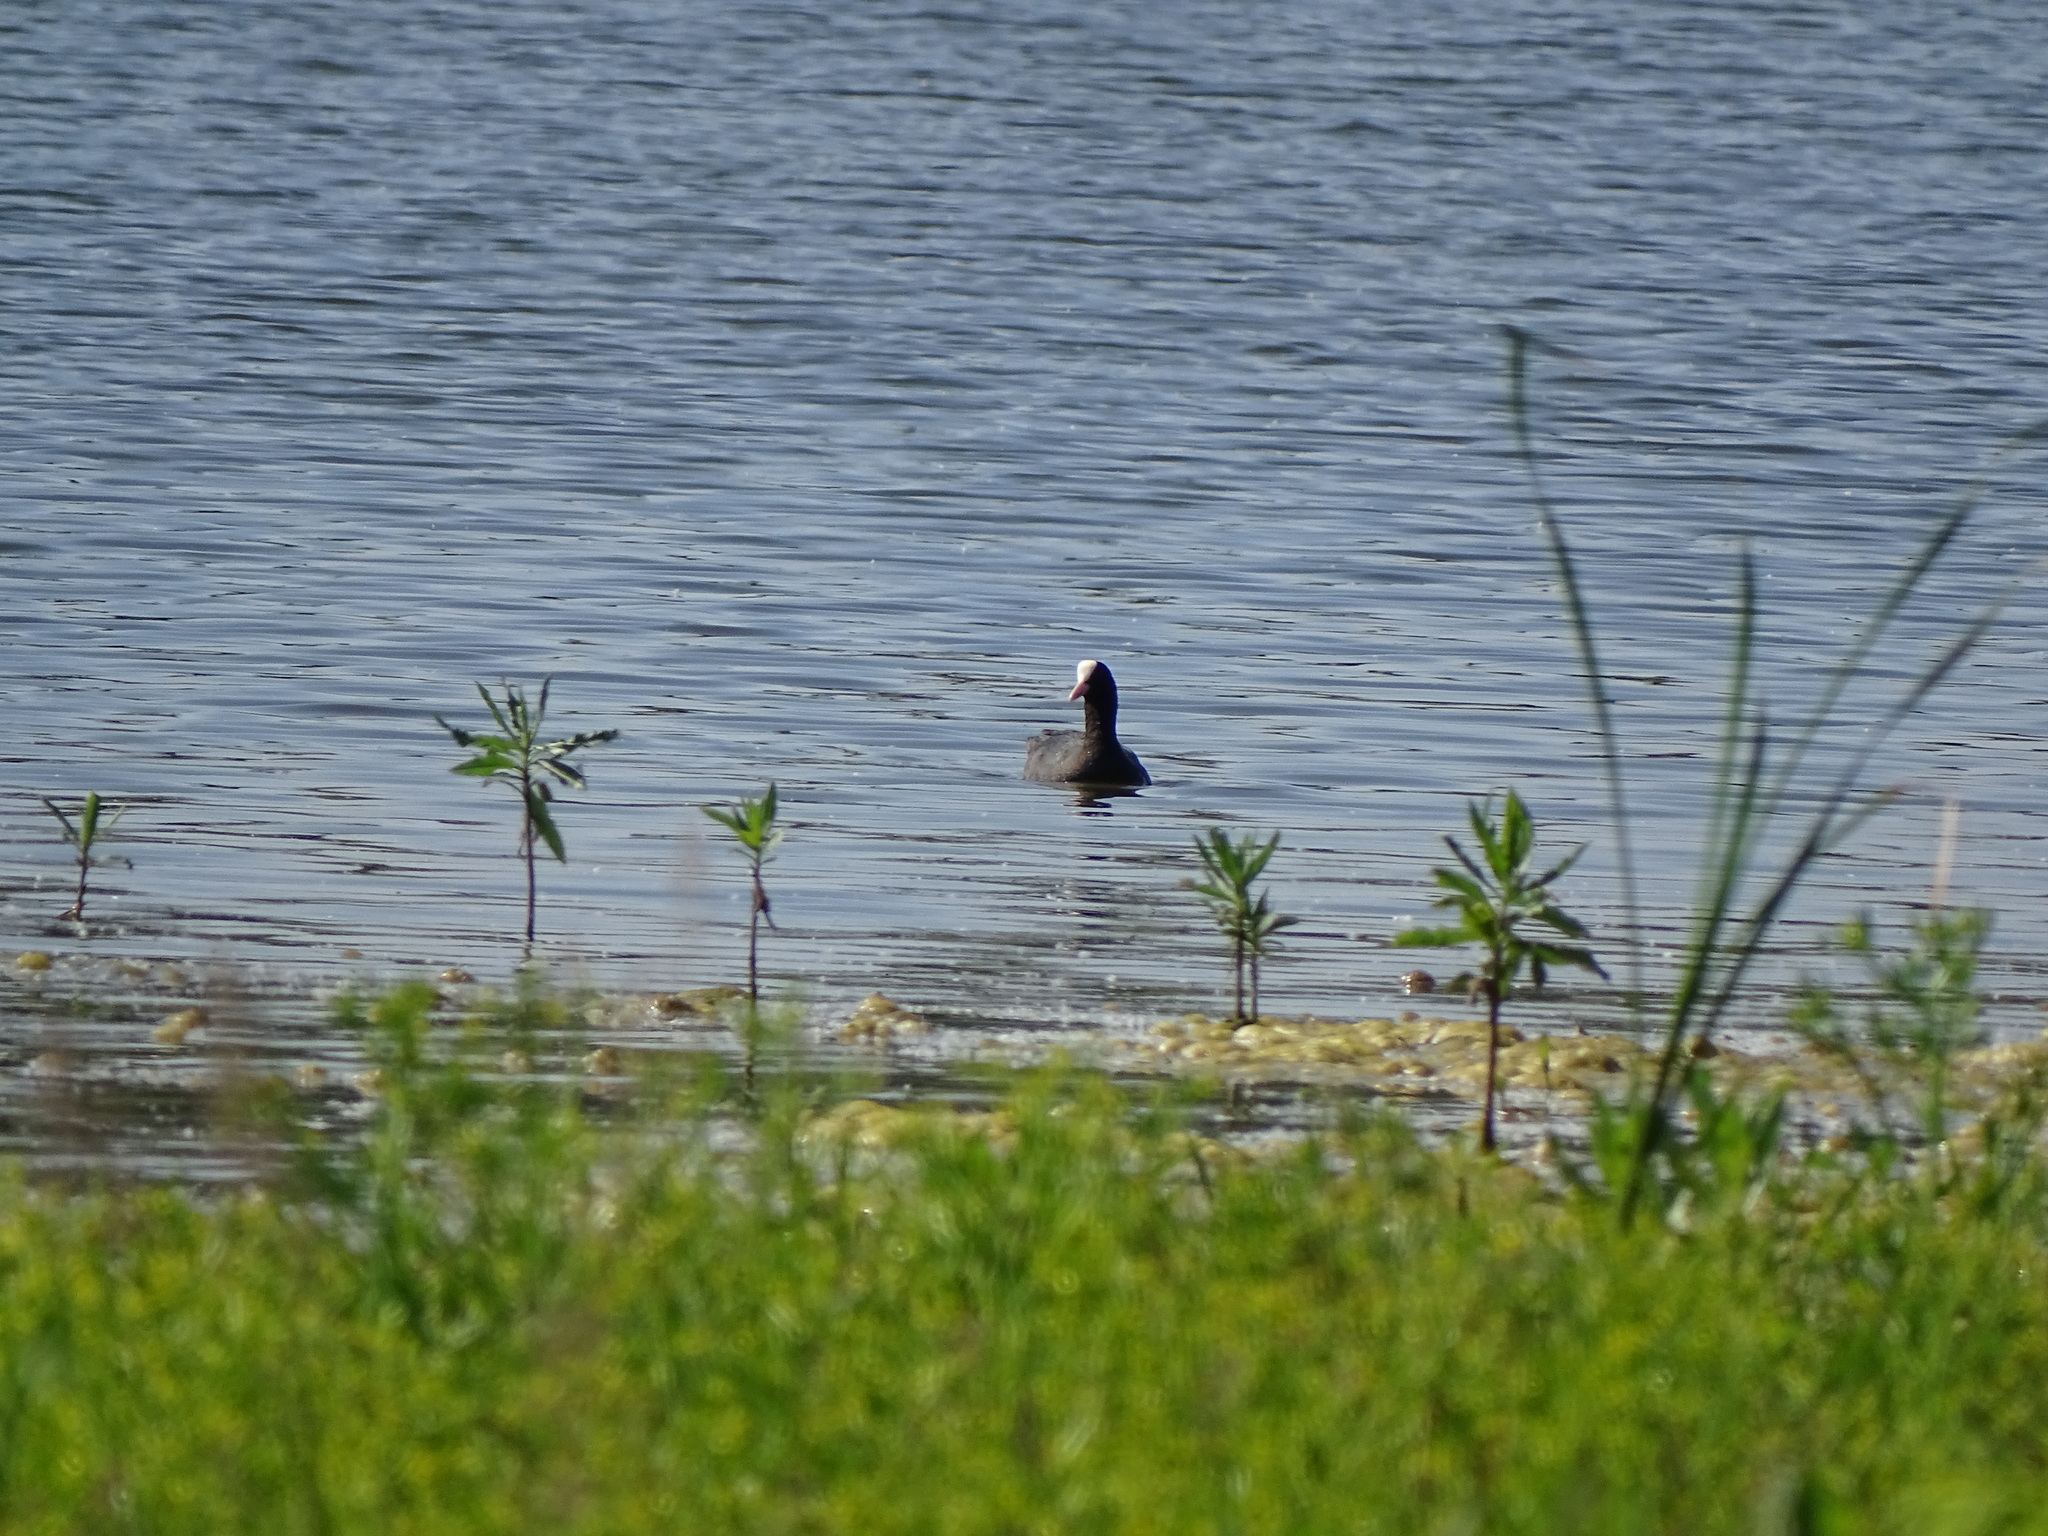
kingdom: Animalia
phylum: Chordata
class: Aves
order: Gruiformes
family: Rallidae
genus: Fulica
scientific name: Fulica atra
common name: Eurasian coot
